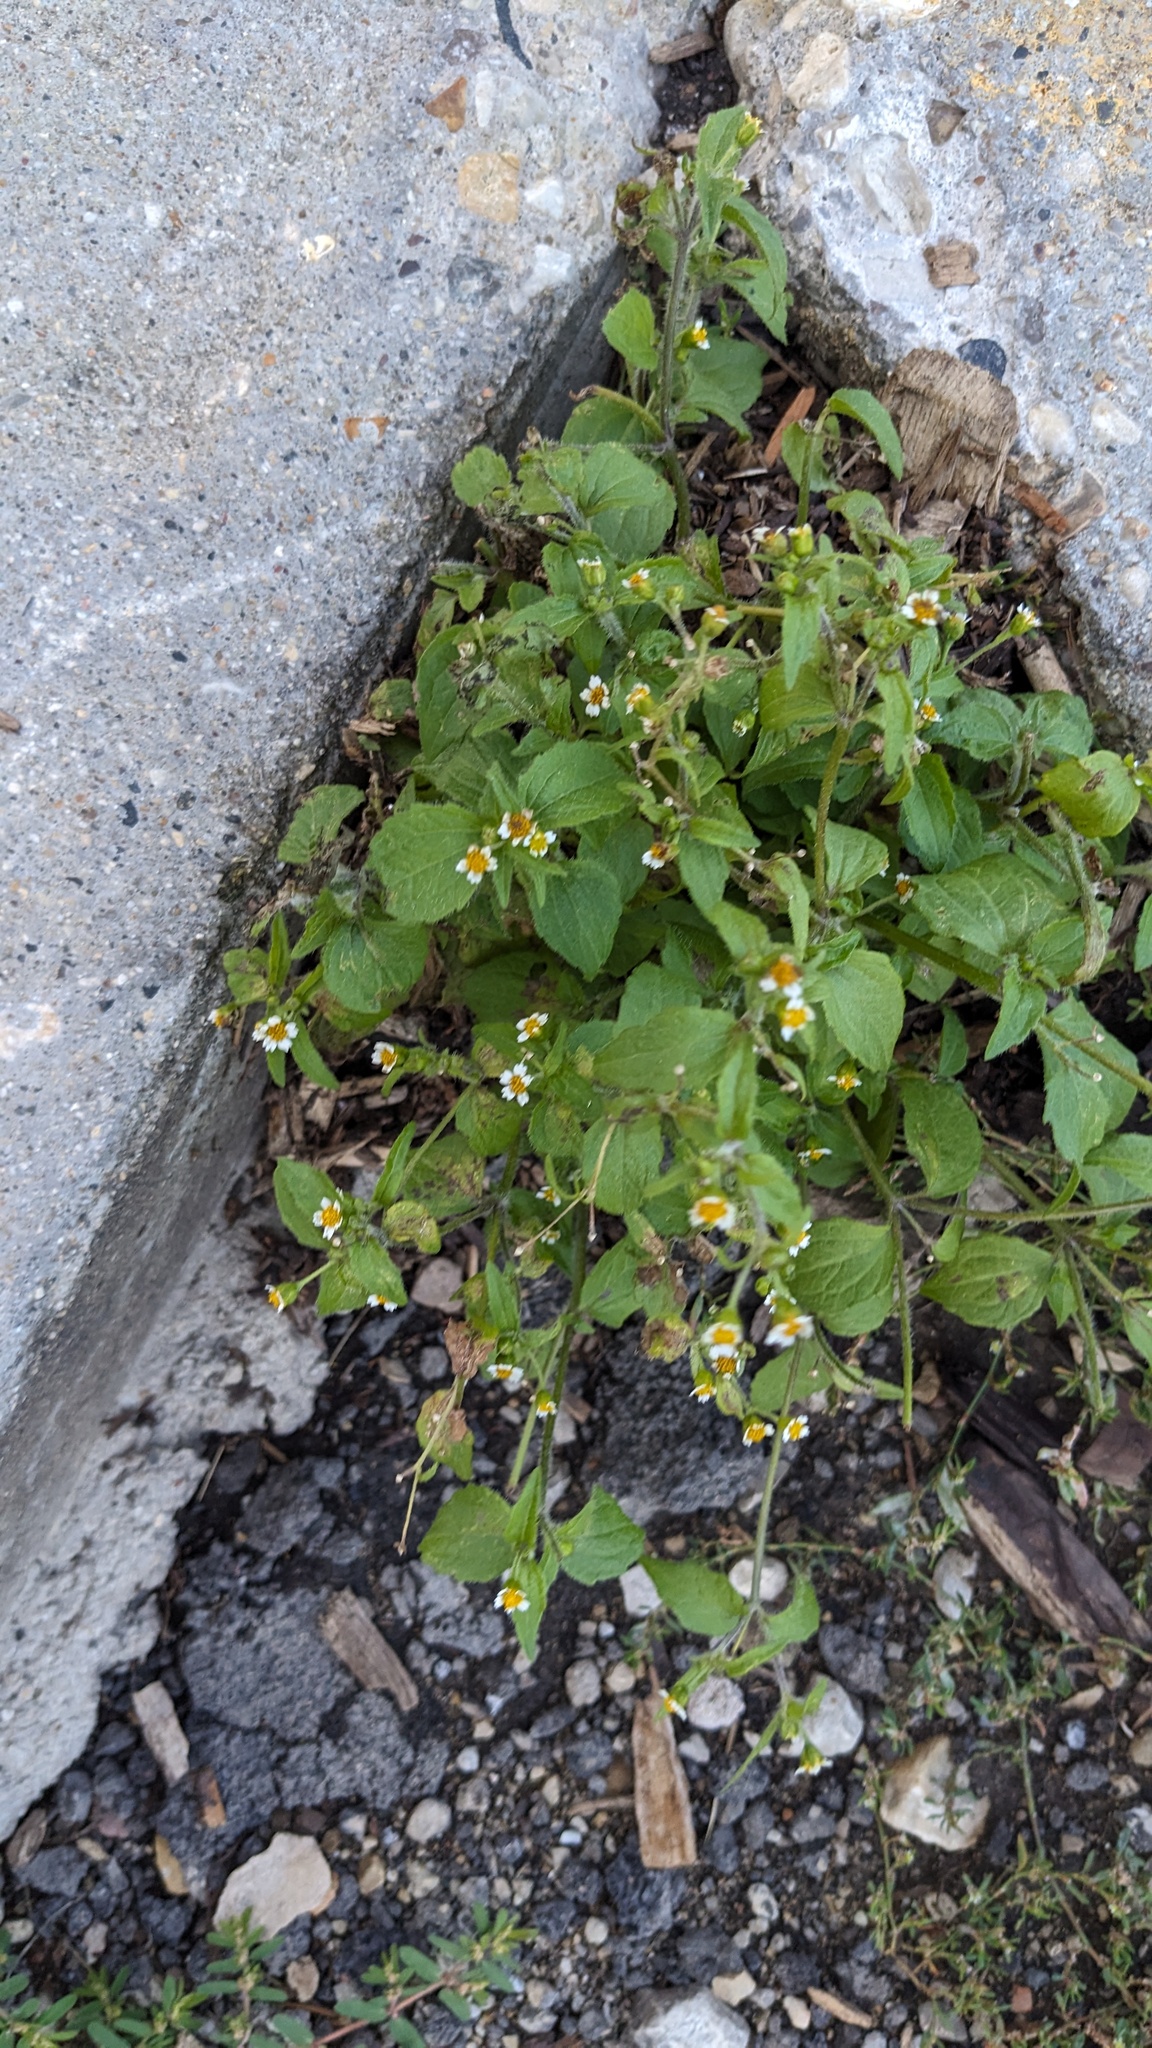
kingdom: Plantae
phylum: Tracheophyta
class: Magnoliopsida
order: Asterales
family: Asteraceae
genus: Galinsoga
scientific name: Galinsoga quadriradiata
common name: Shaggy soldier
